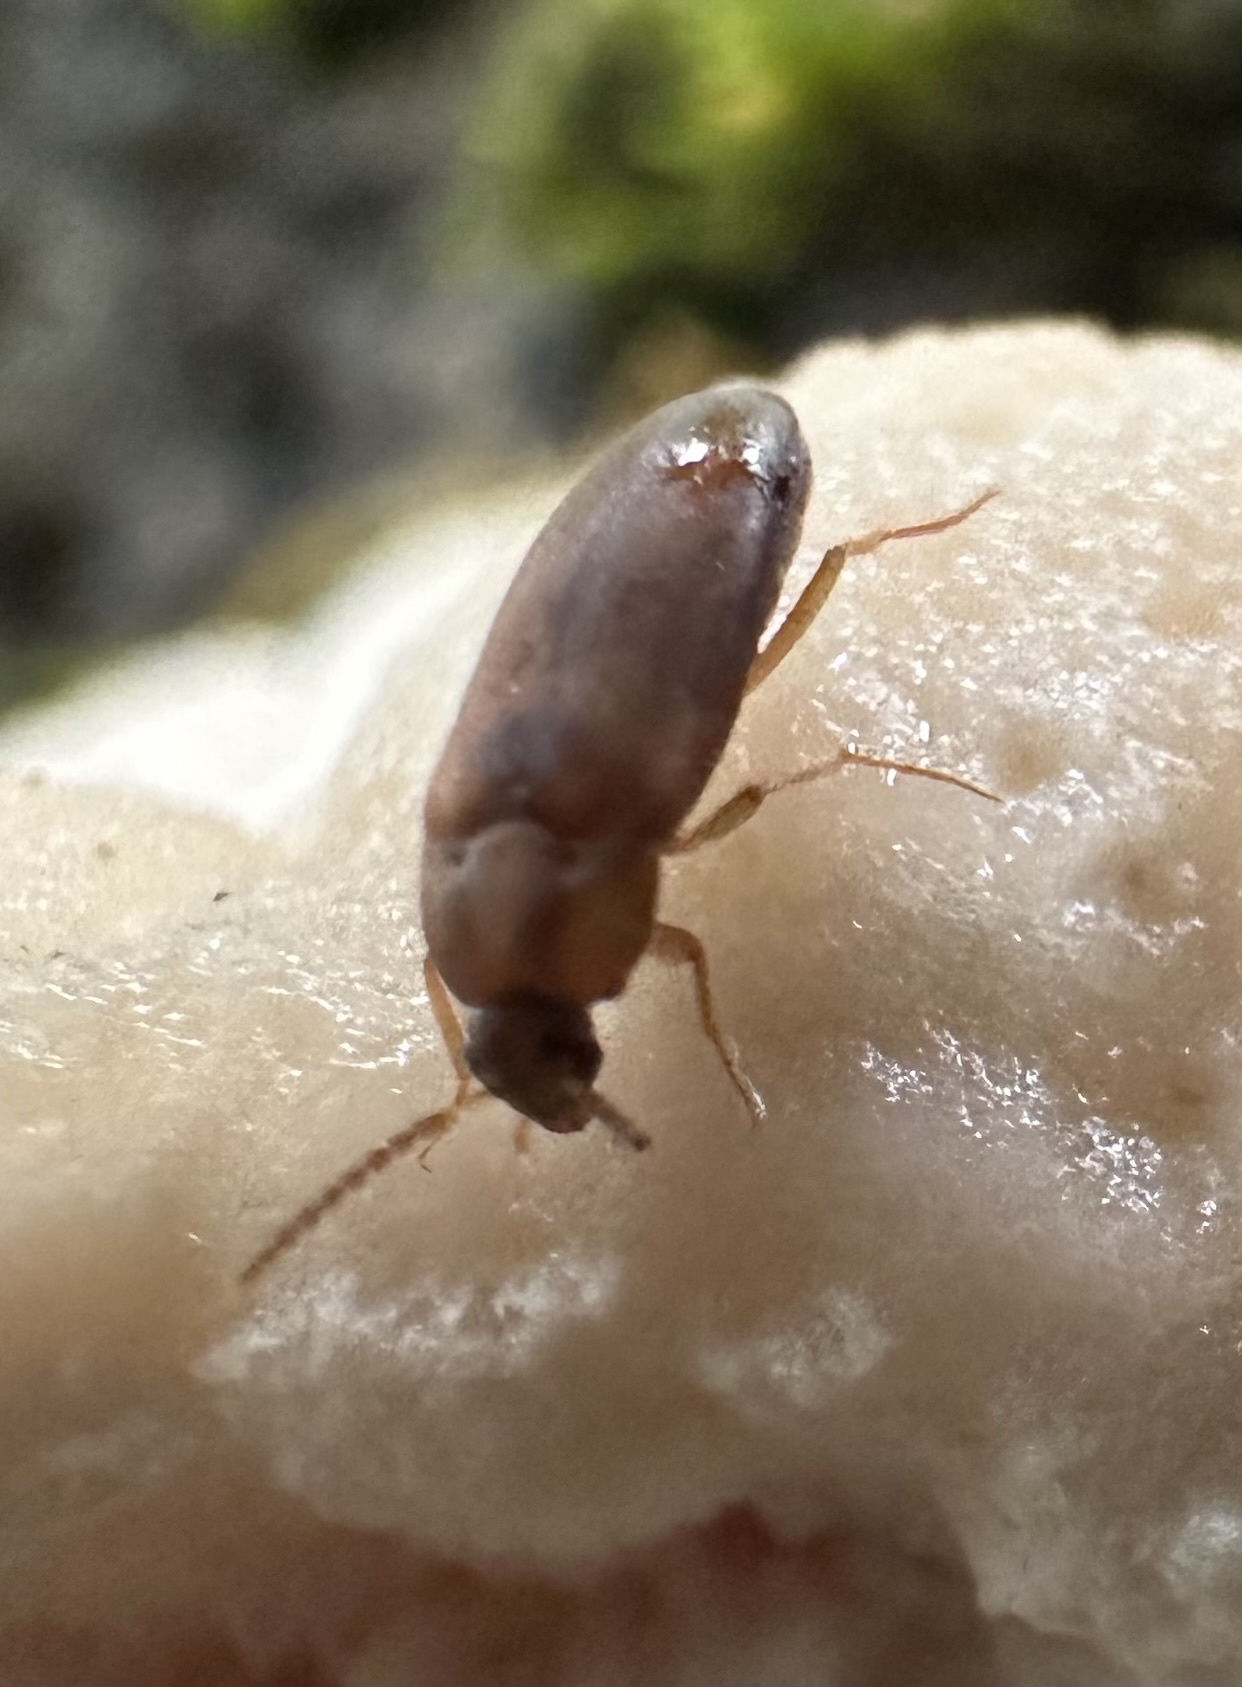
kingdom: Animalia
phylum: Arthropoda
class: Insecta
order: Coleoptera
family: Tetratomidae
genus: Hallomenus
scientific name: Hallomenus binotatus
